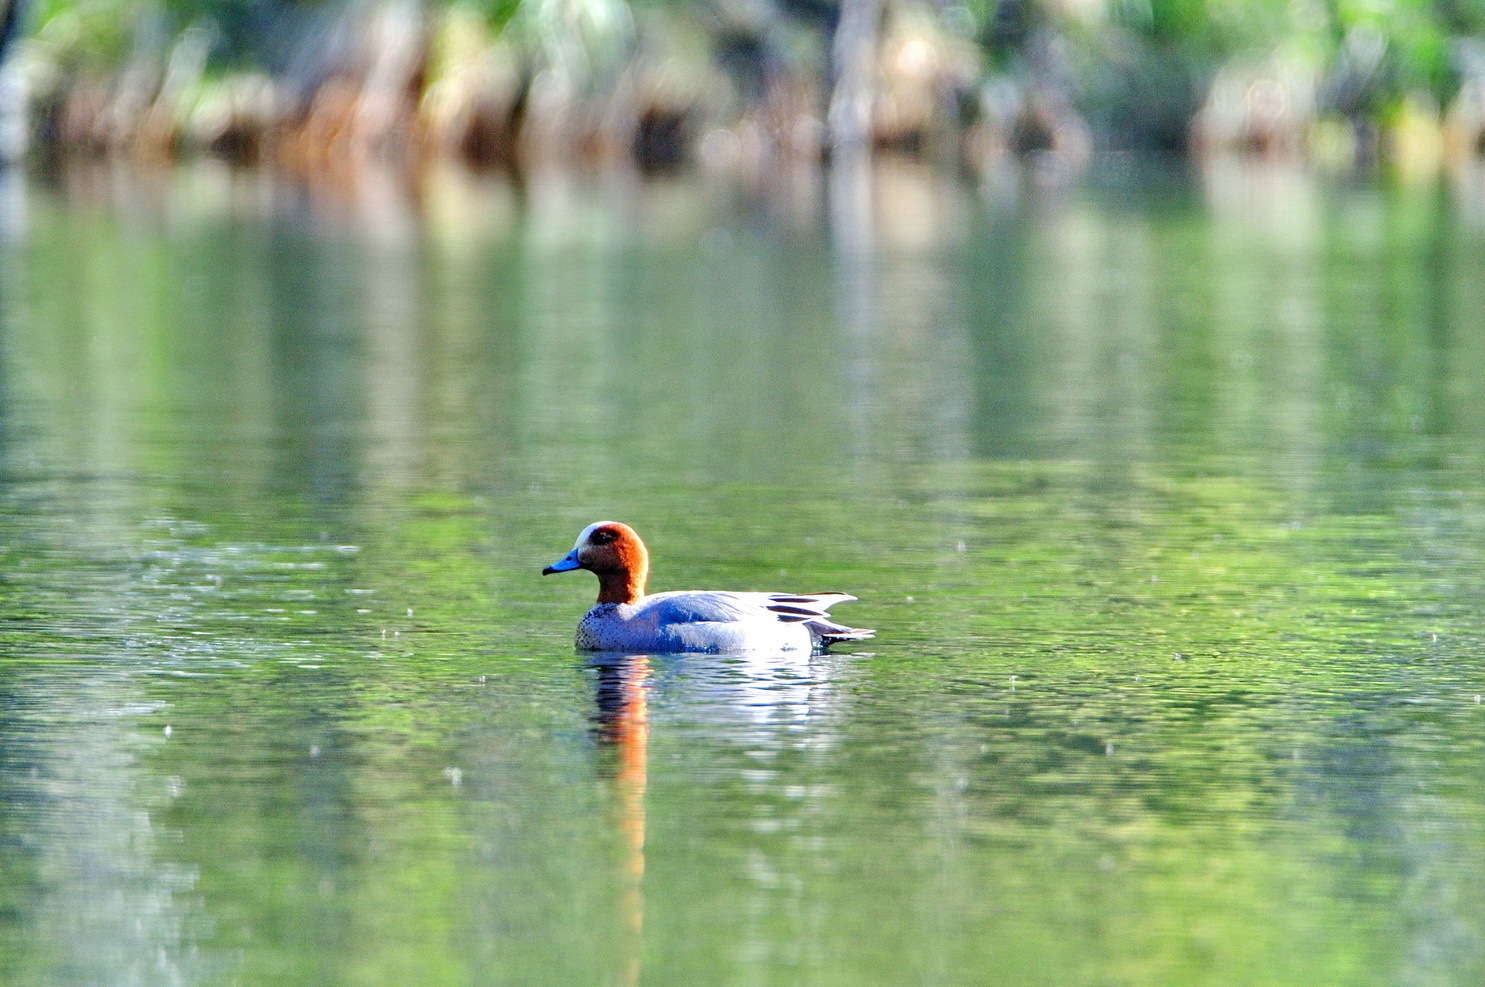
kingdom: Animalia
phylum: Chordata
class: Aves
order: Anseriformes
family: Anatidae
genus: Mareca
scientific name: Mareca penelope
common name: Eurasian wigeon
